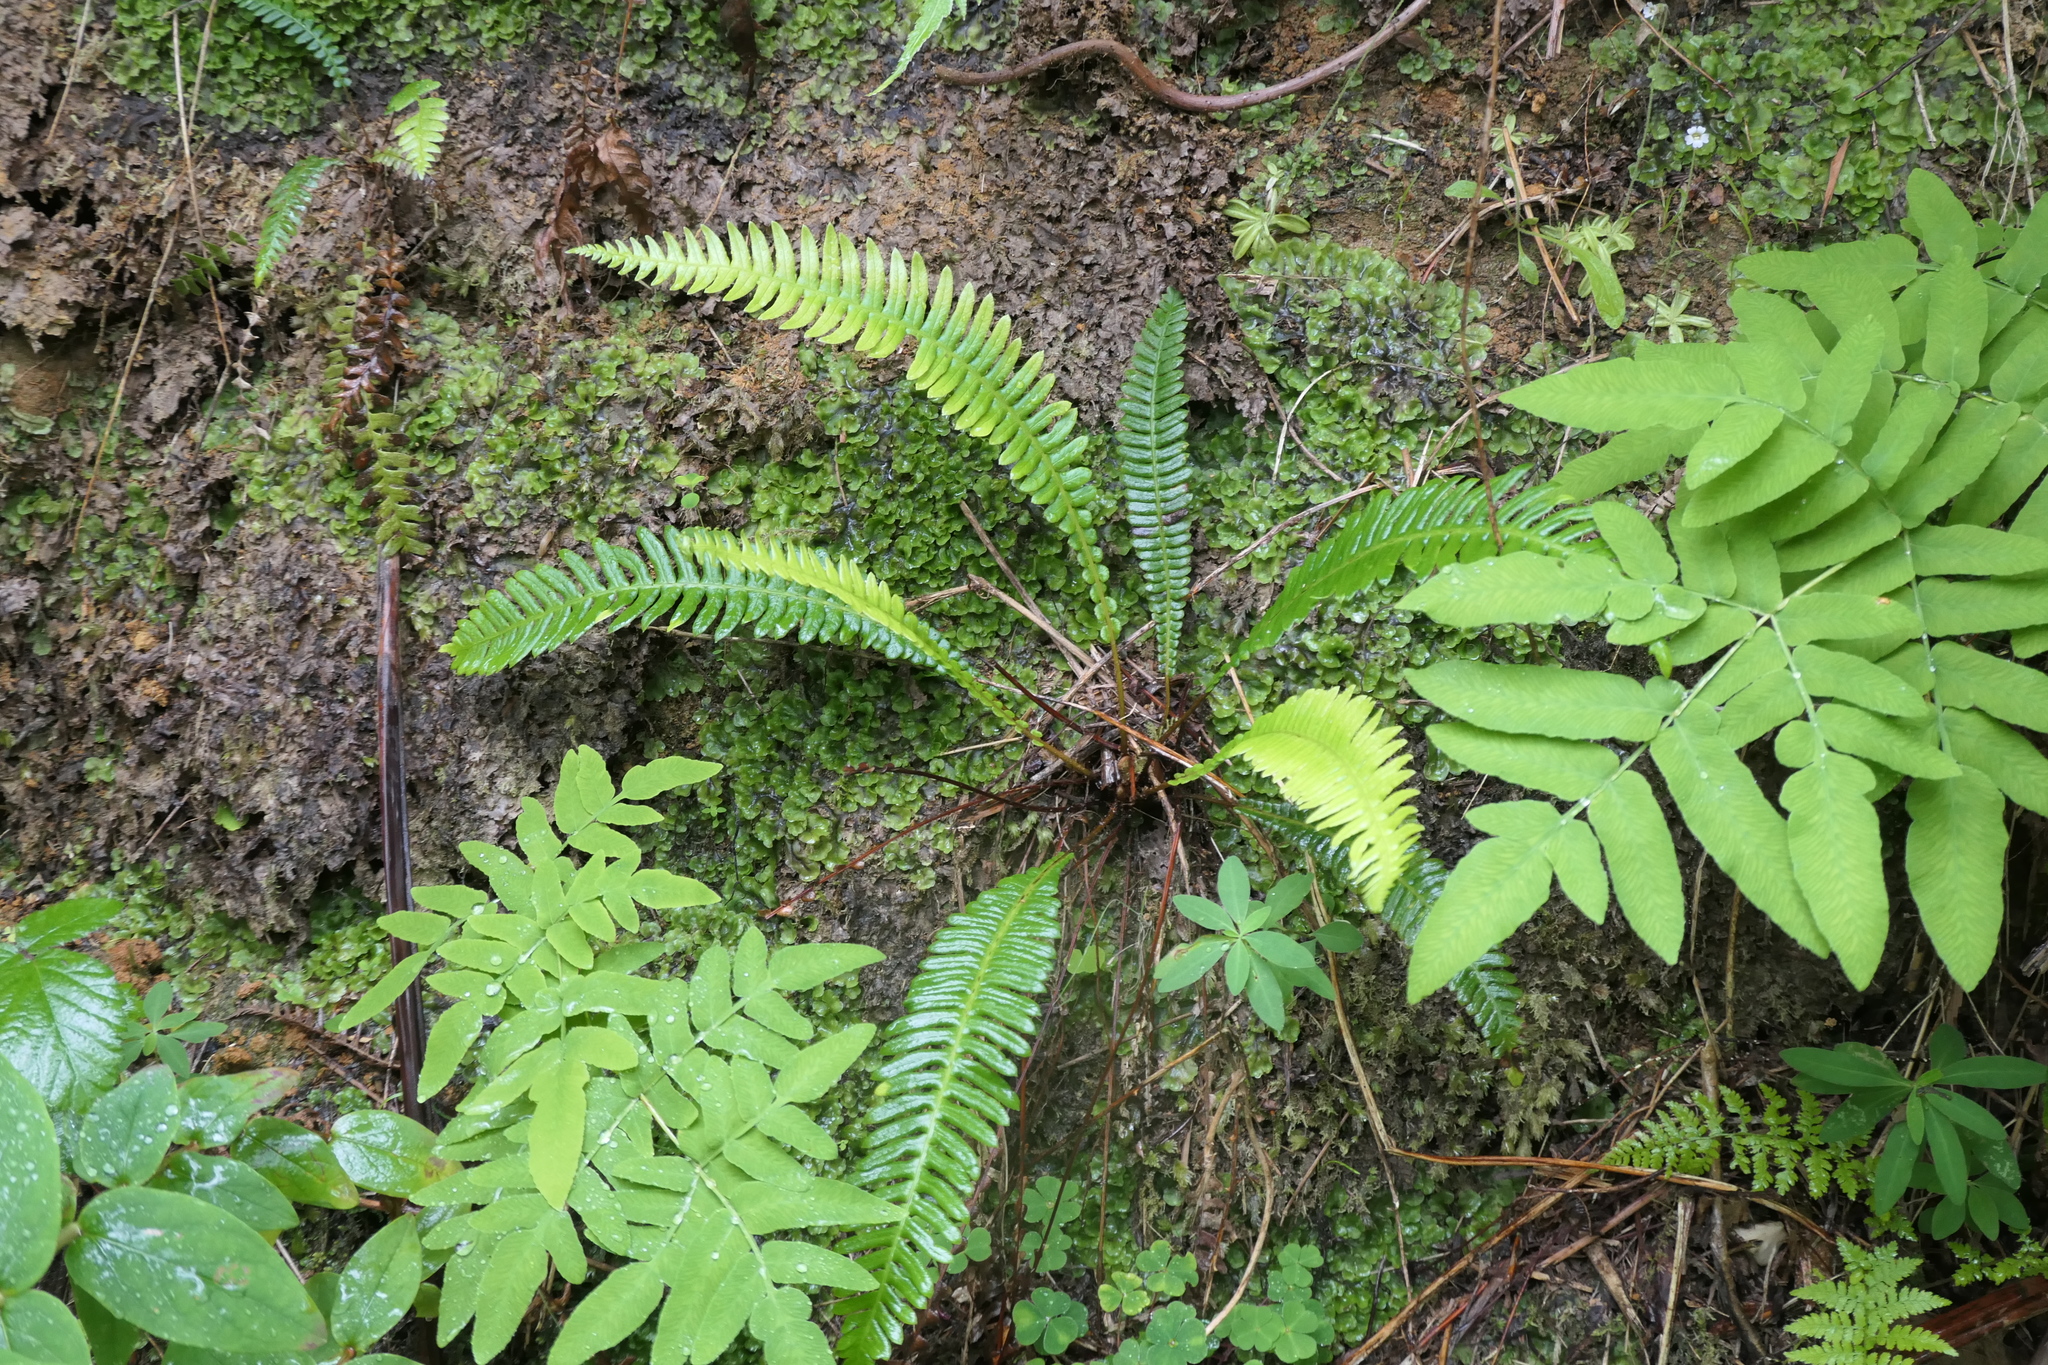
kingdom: Plantae
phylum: Tracheophyta
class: Polypodiopsida
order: Polypodiales
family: Blechnaceae
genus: Struthiopteris
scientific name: Struthiopteris spicant
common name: Deer fern
